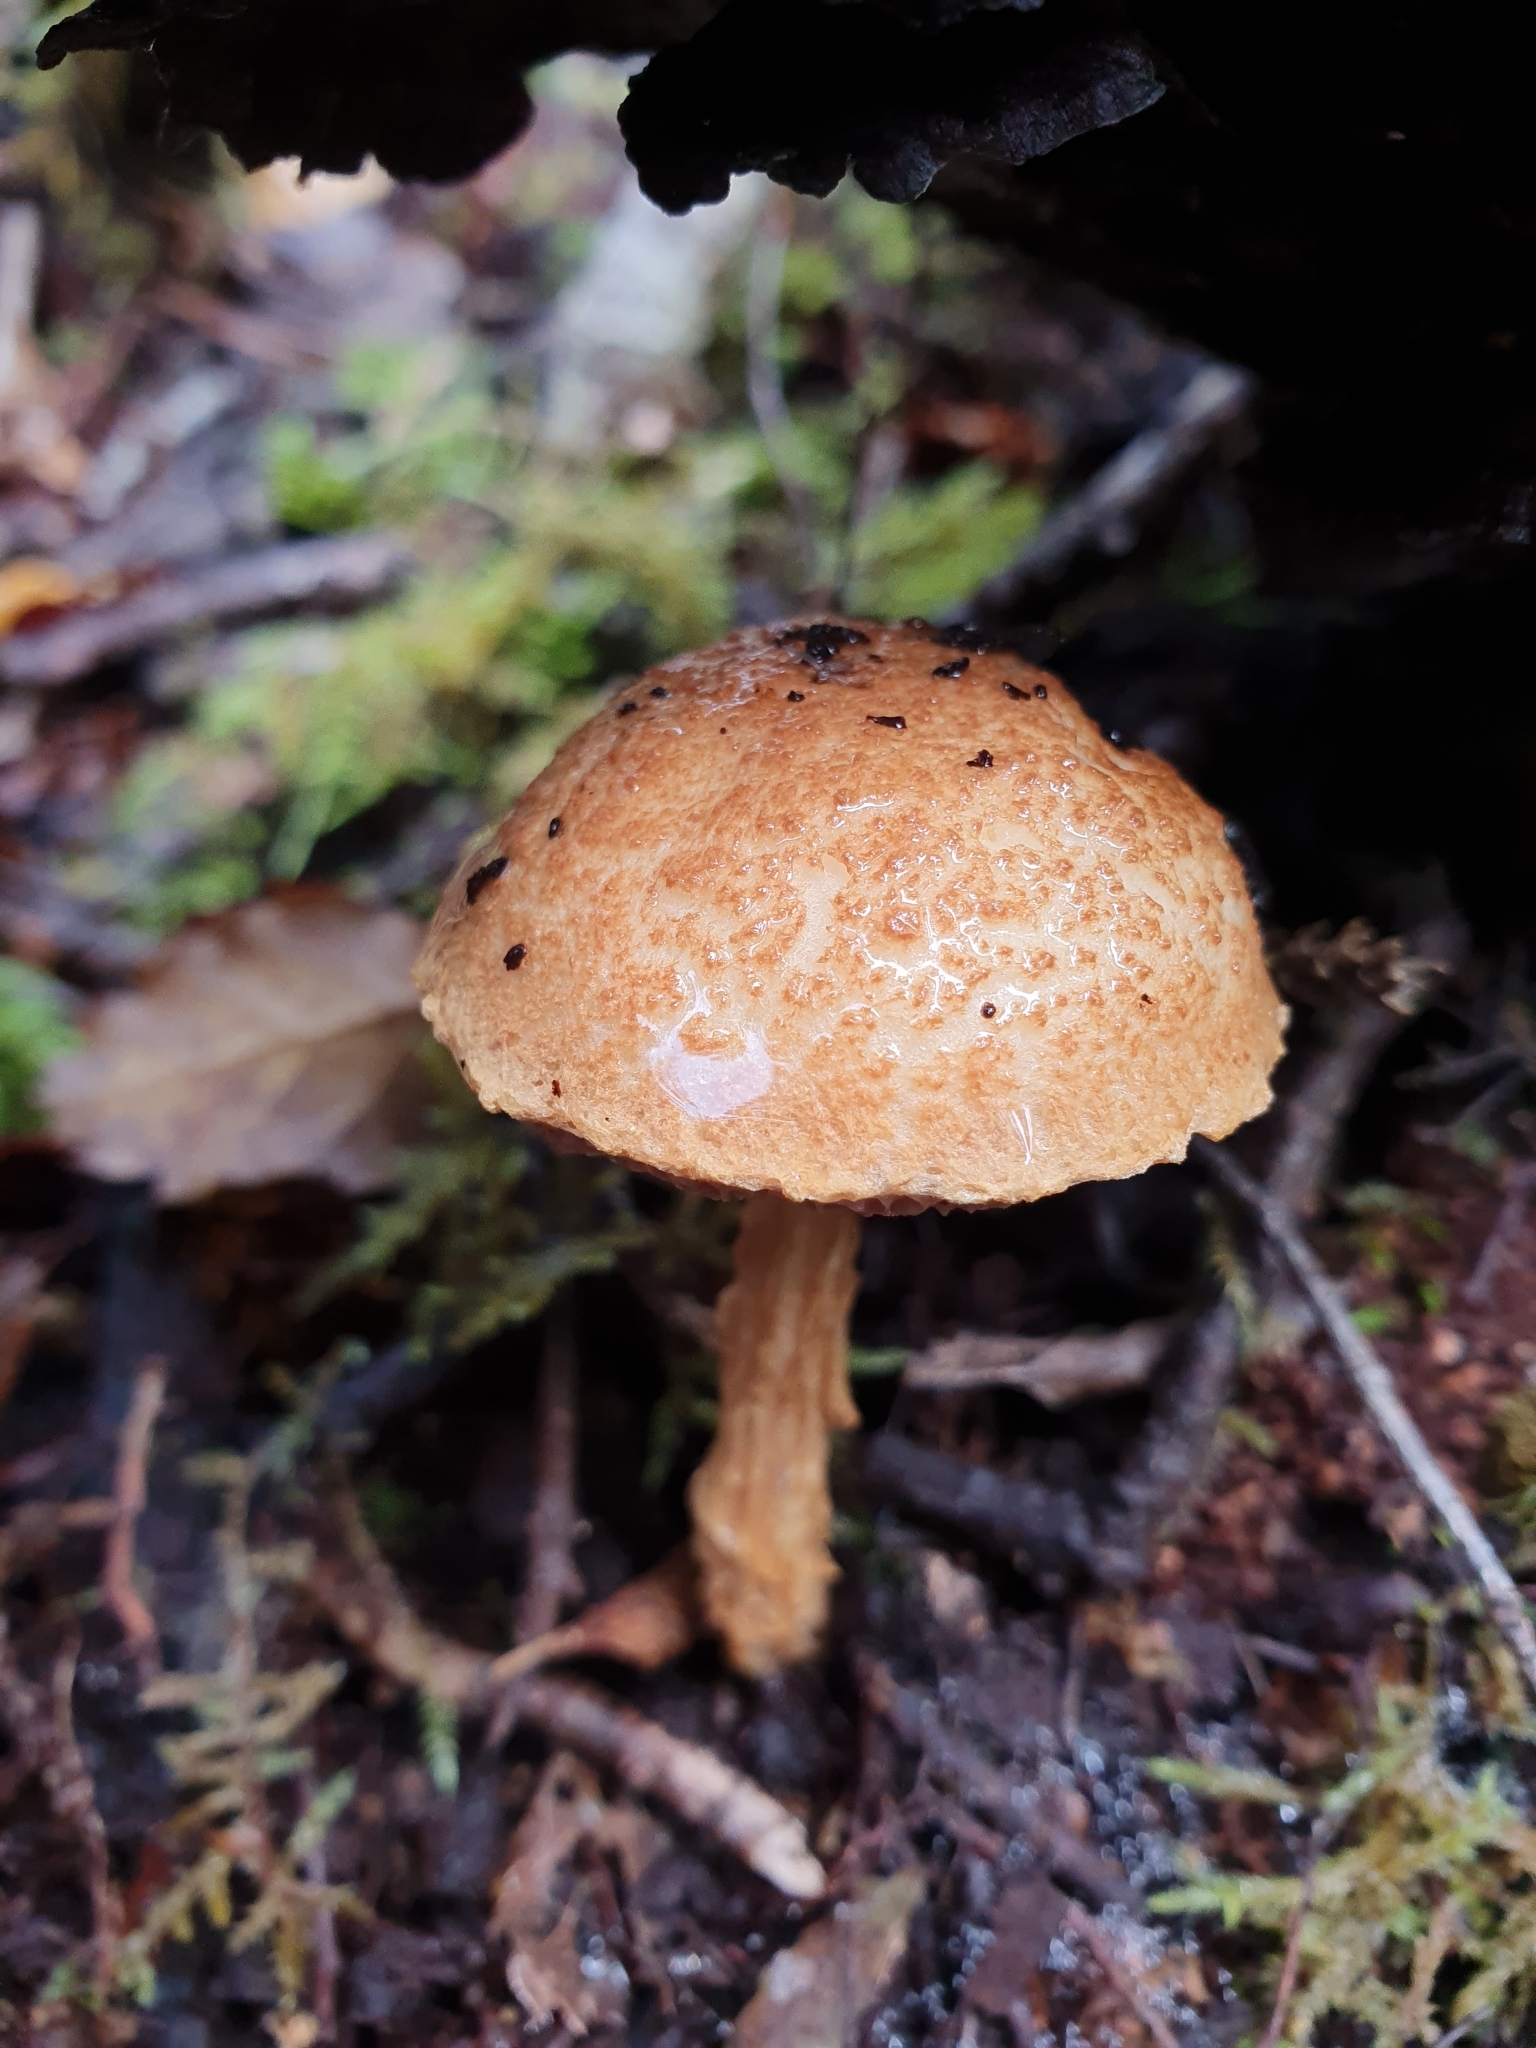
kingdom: Fungi
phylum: Basidiomycota
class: Agaricomycetes
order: Boletales
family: Boletaceae
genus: Austroboletus
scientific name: Austroboletus lacunosus
